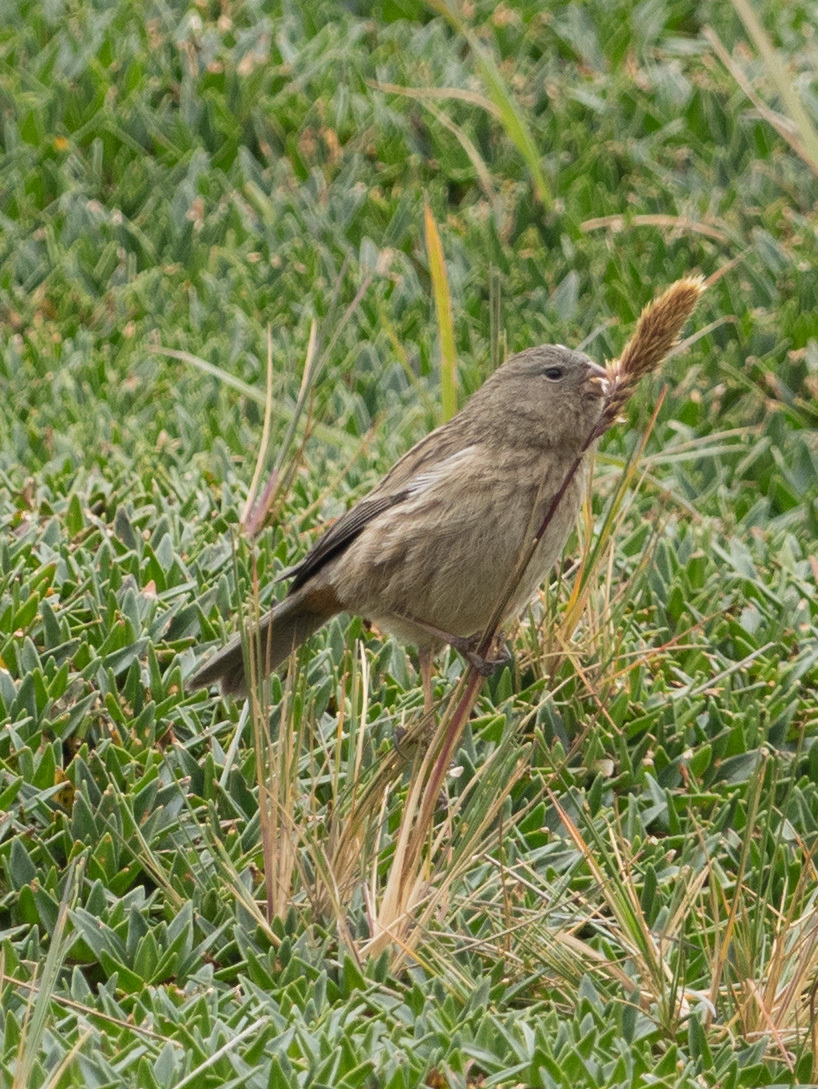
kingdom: Animalia
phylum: Chordata
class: Aves
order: Passeriformes
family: Thraupidae
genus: Catamenia
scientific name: Catamenia inornata
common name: Plain-colored seedeater
